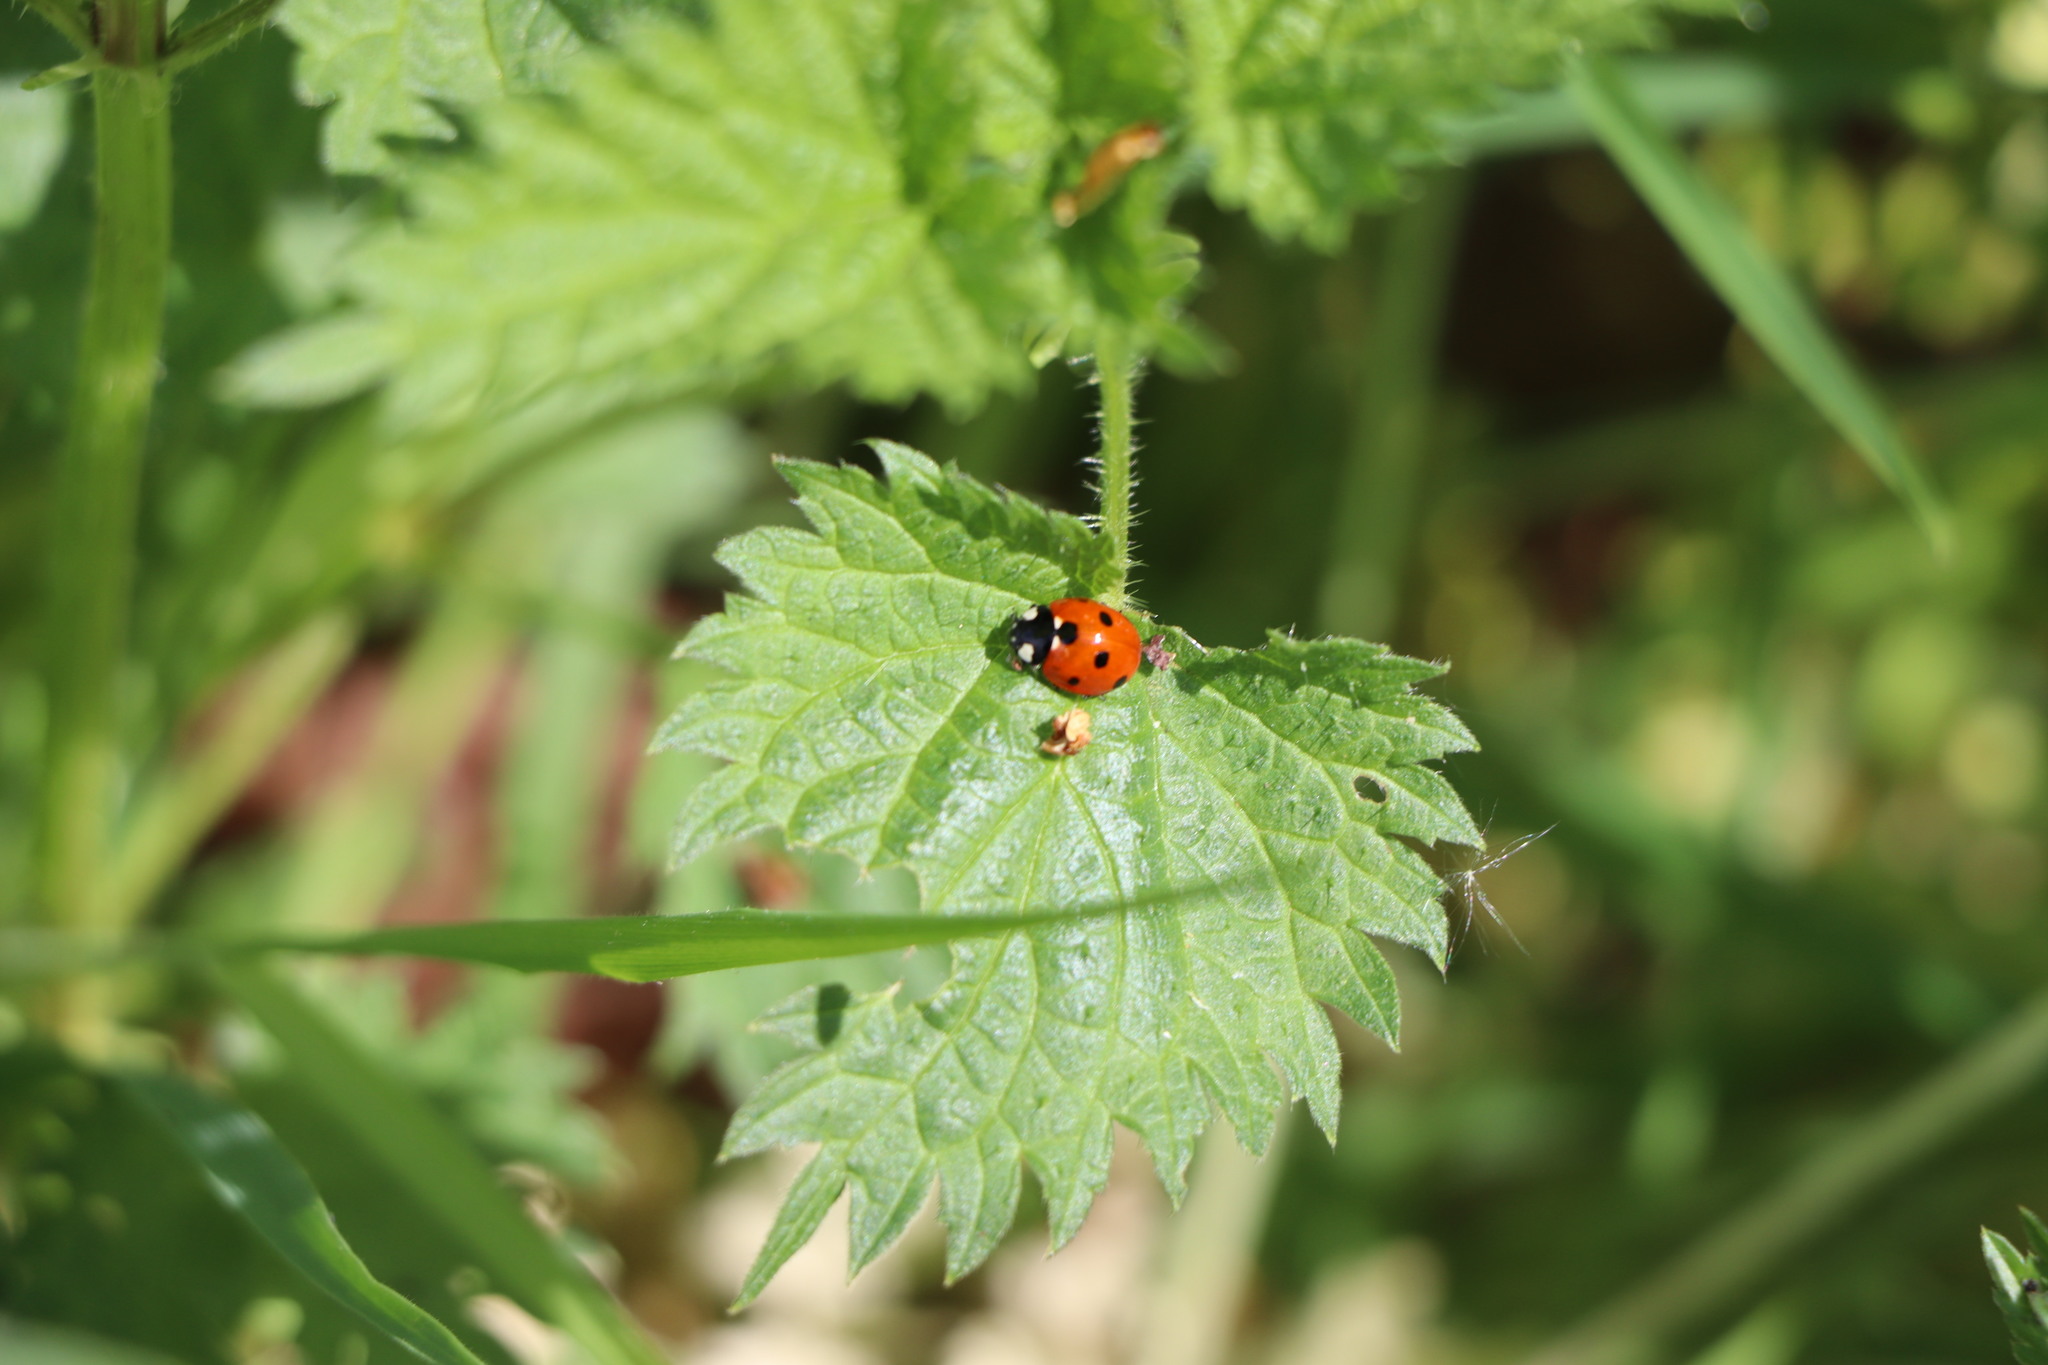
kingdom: Animalia
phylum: Arthropoda
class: Insecta
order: Coleoptera
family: Coccinellidae
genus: Coccinella
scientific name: Coccinella septempunctata
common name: Sevenspotted lady beetle
